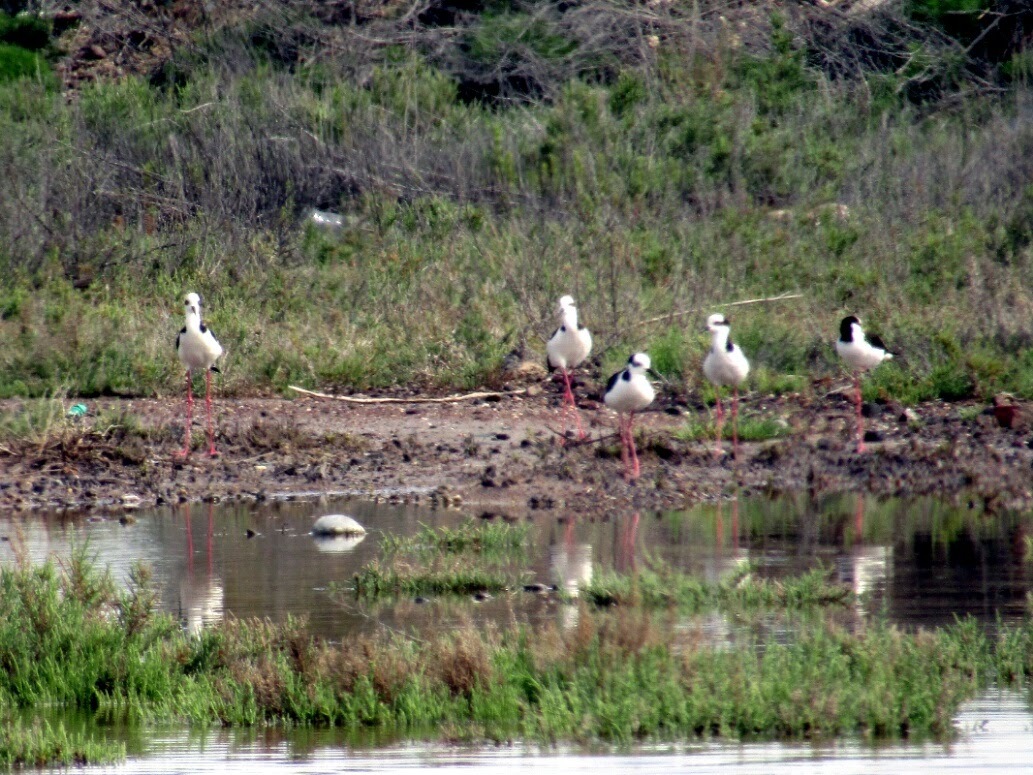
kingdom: Animalia
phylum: Chordata
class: Aves
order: Charadriiformes
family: Recurvirostridae
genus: Himantopus
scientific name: Himantopus mexicanus
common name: Black-necked stilt
